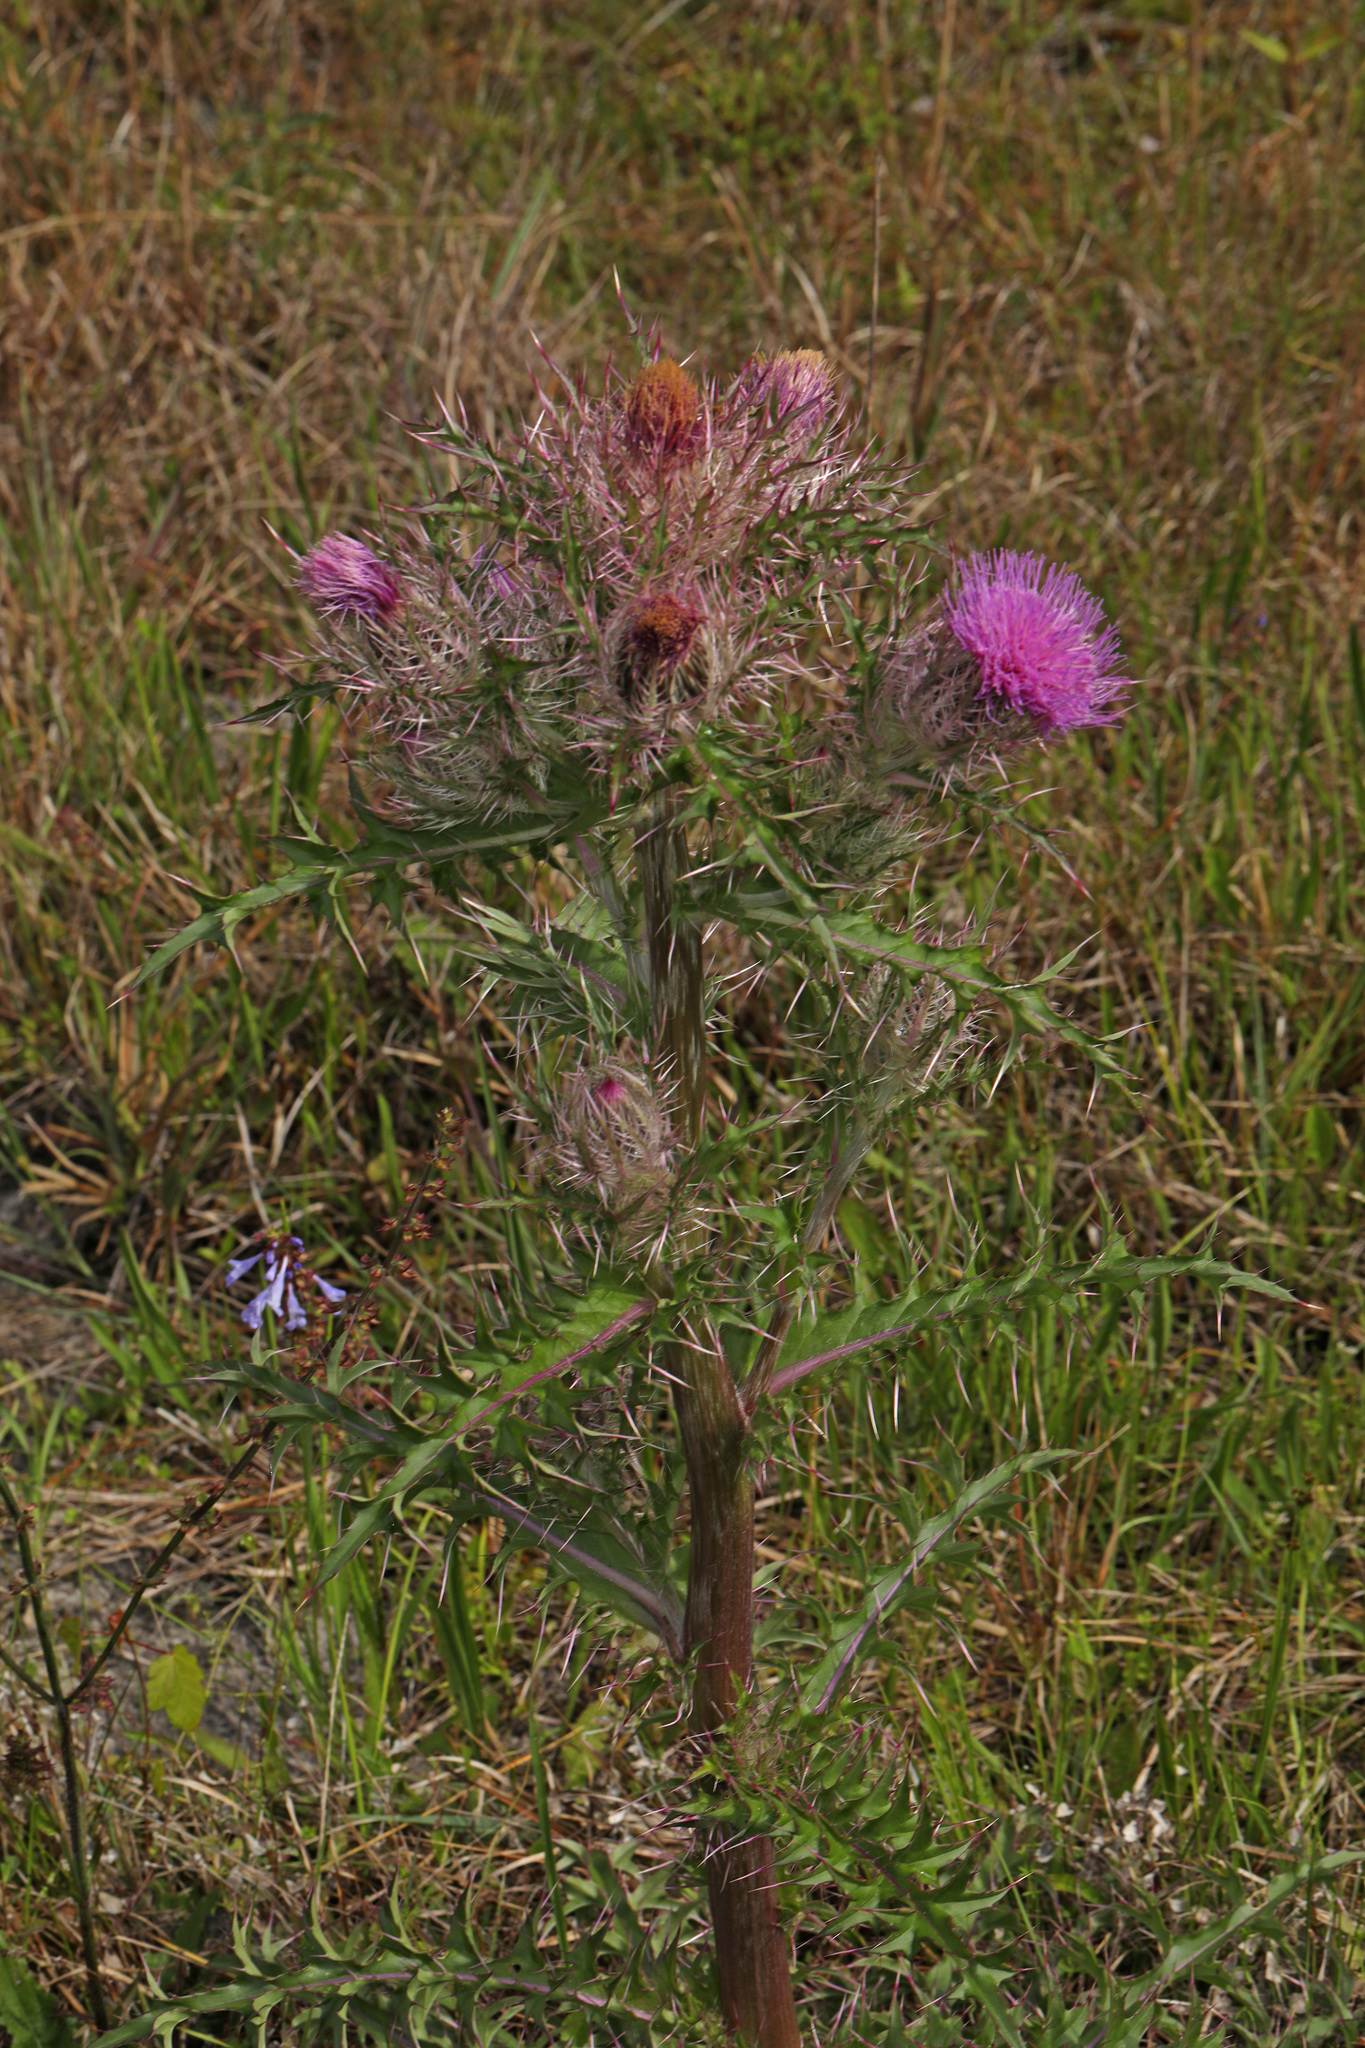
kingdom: Plantae
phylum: Tracheophyta
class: Magnoliopsida
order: Asterales
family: Asteraceae
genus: Cirsium
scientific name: Cirsium horridulum
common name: Bristly thistle
